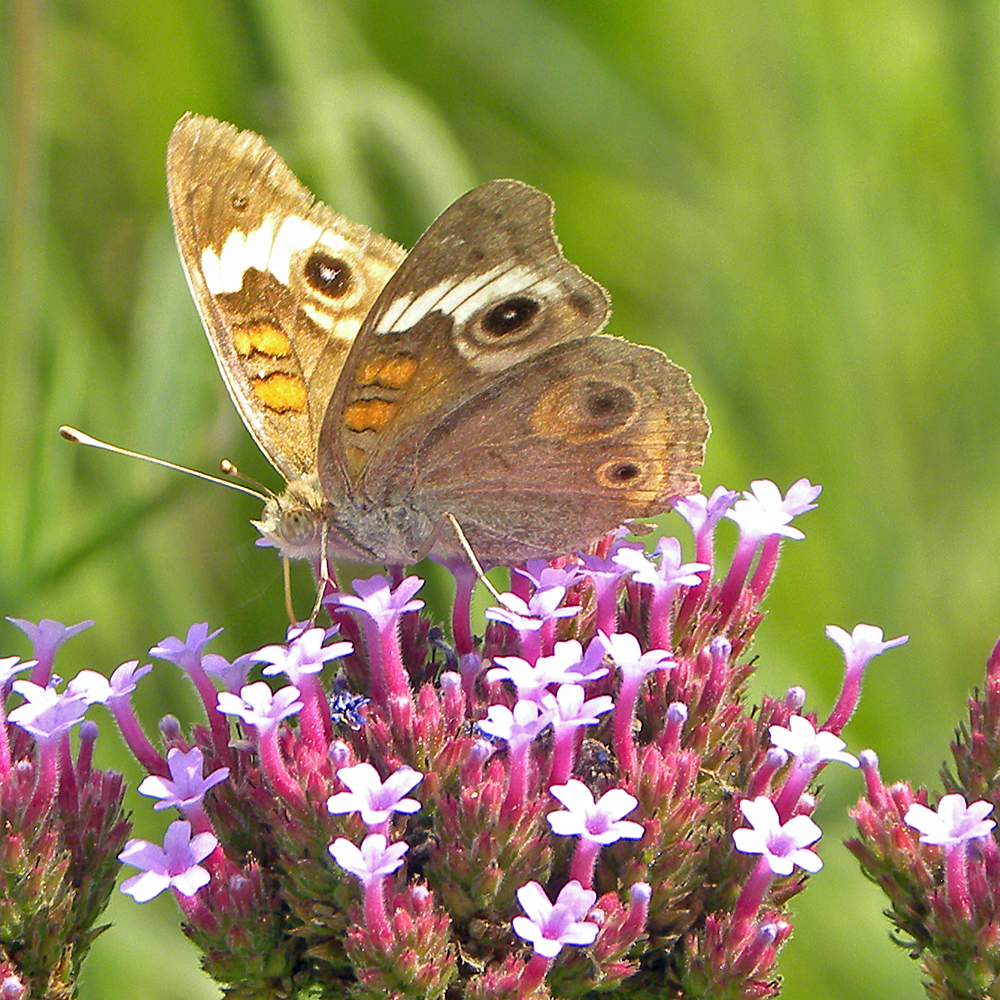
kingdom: Animalia
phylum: Arthropoda
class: Insecta
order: Lepidoptera
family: Nymphalidae
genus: Junonia
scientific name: Junonia coenia
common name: Common buckeye
